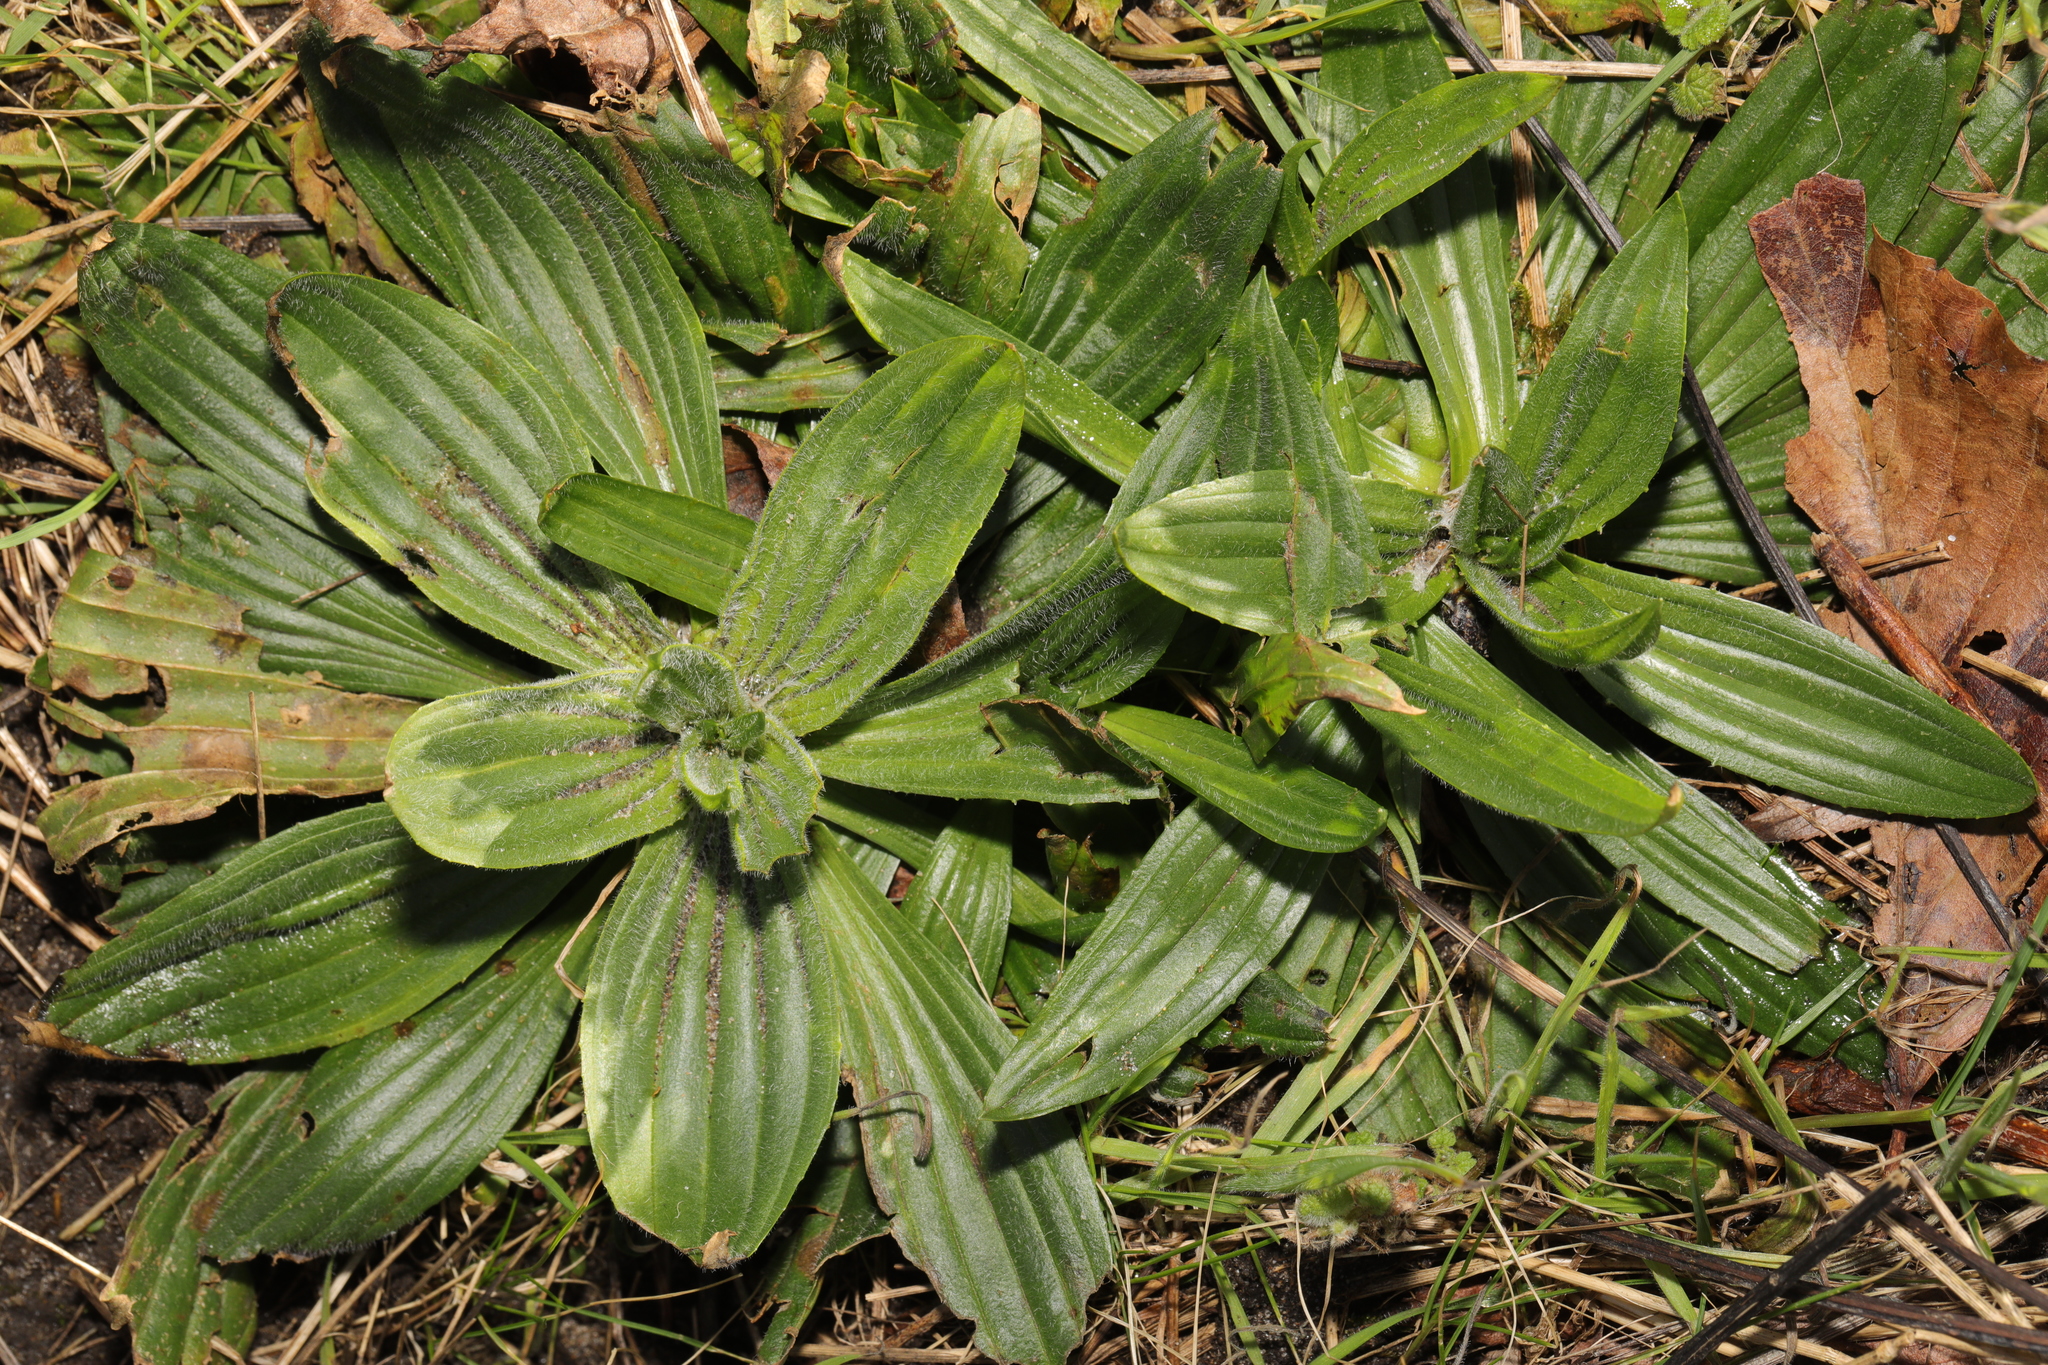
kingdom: Plantae
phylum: Tracheophyta
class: Magnoliopsida
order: Lamiales
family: Plantaginaceae
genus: Plantago
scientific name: Plantago lanceolata
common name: Ribwort plantain
